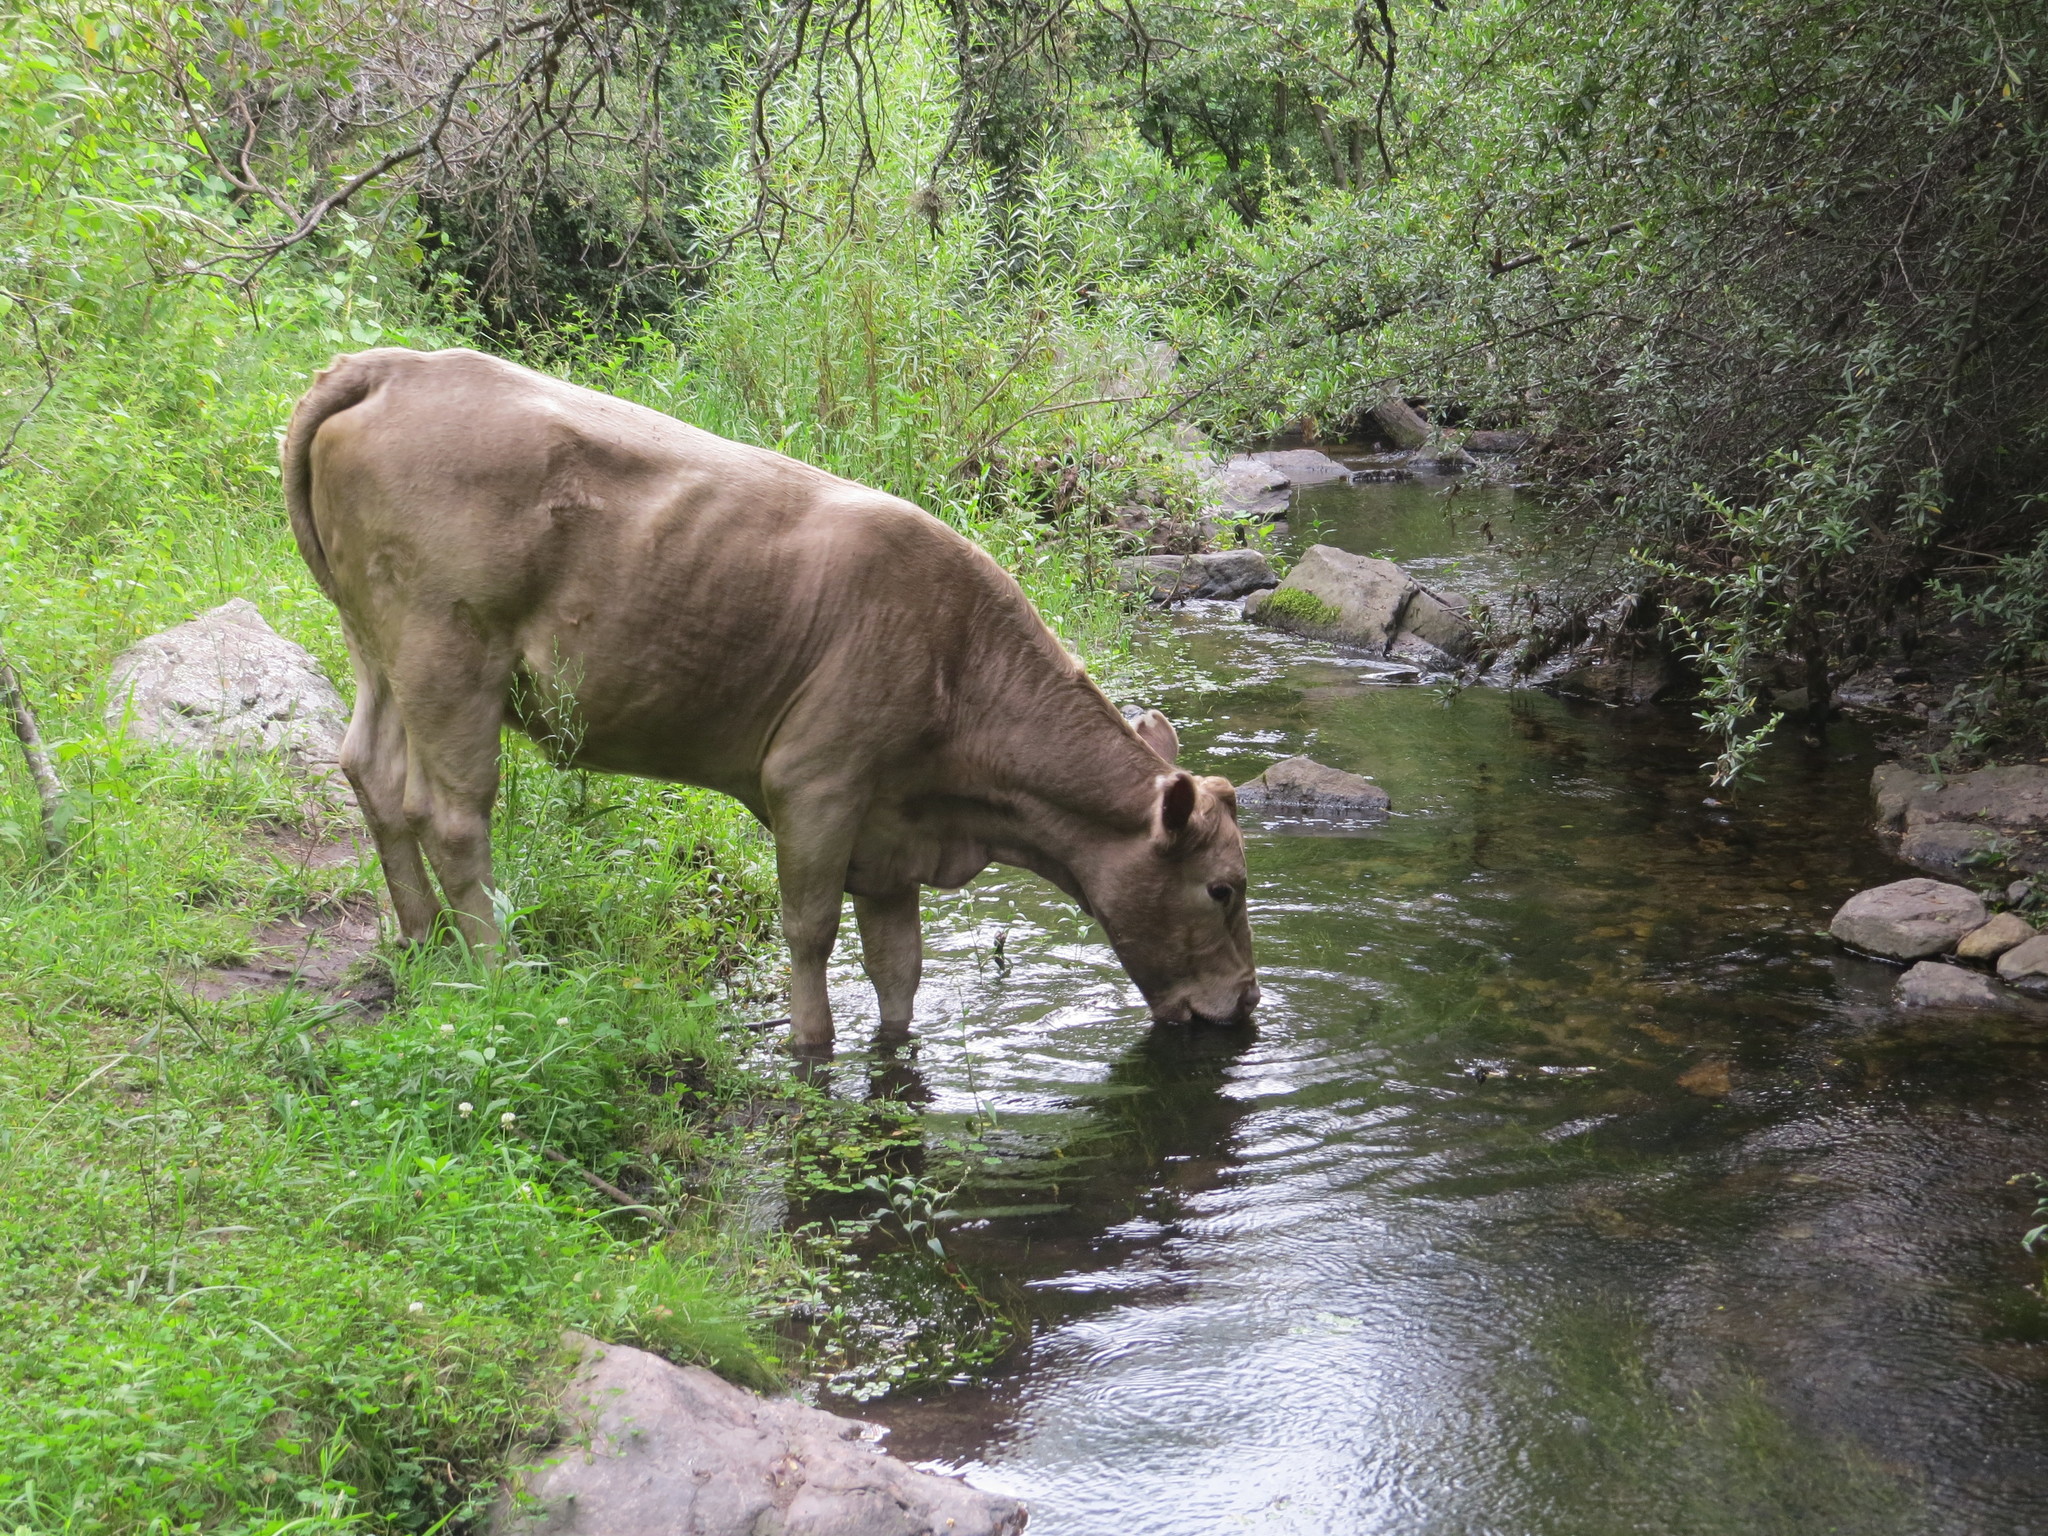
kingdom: Animalia
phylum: Chordata
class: Mammalia
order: Artiodactyla
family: Bovidae
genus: Bos
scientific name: Bos taurus
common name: Domesticated cattle
